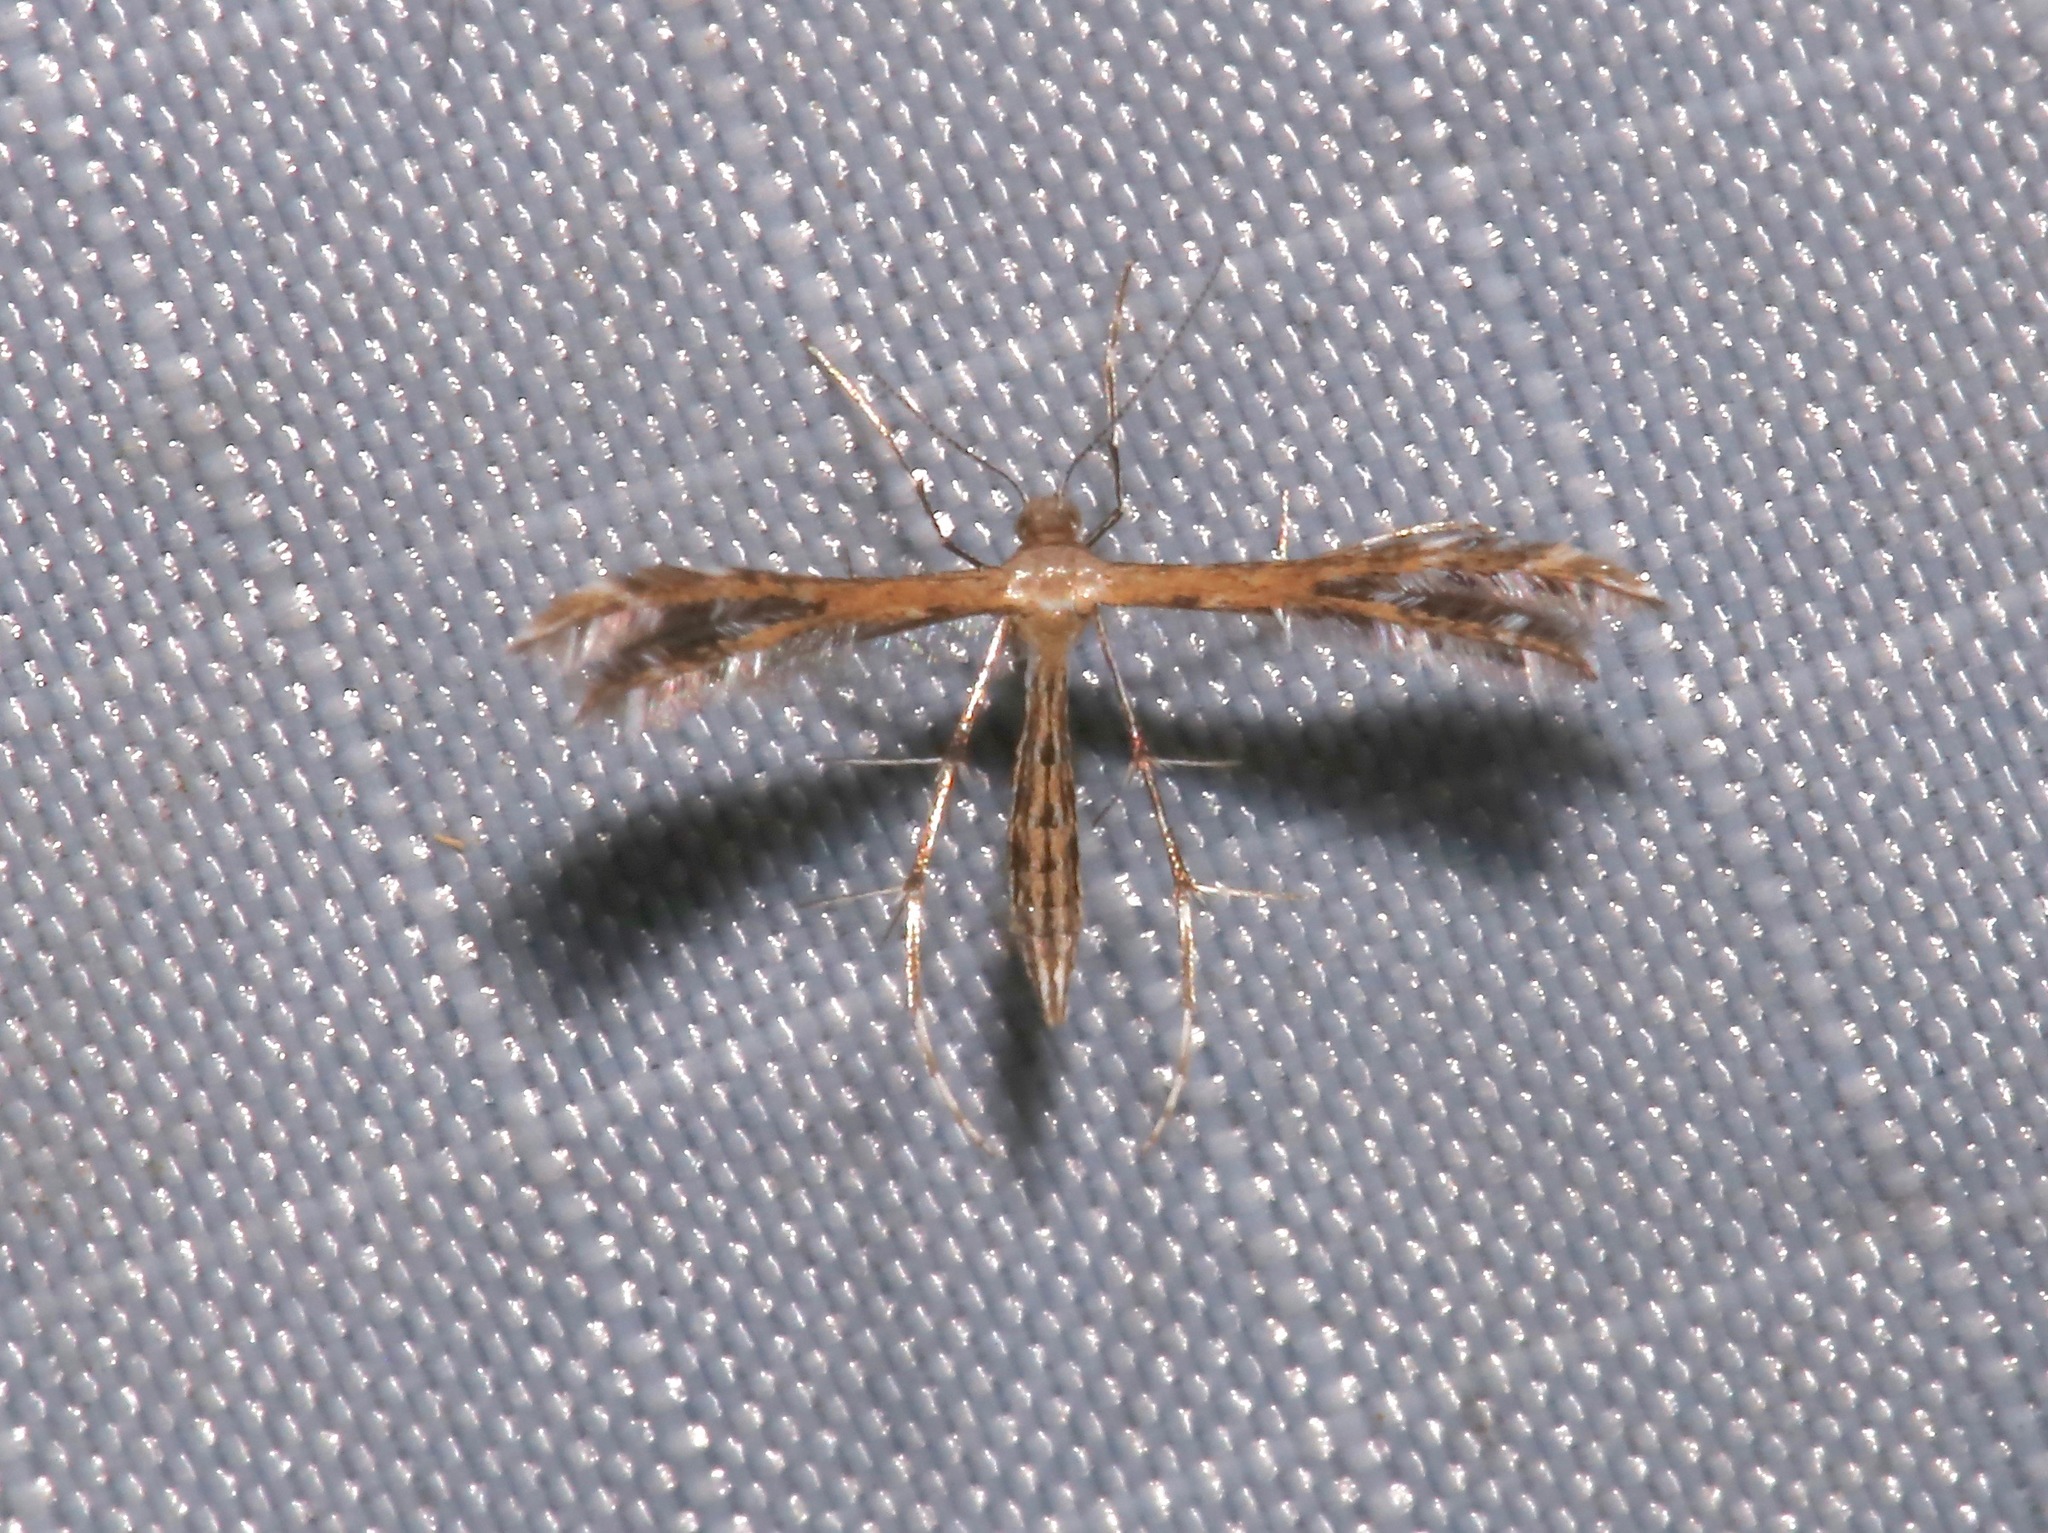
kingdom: Animalia
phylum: Arthropoda
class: Insecta
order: Lepidoptera
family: Pterophoridae
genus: Buckleria
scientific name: Buckleria parvulus
